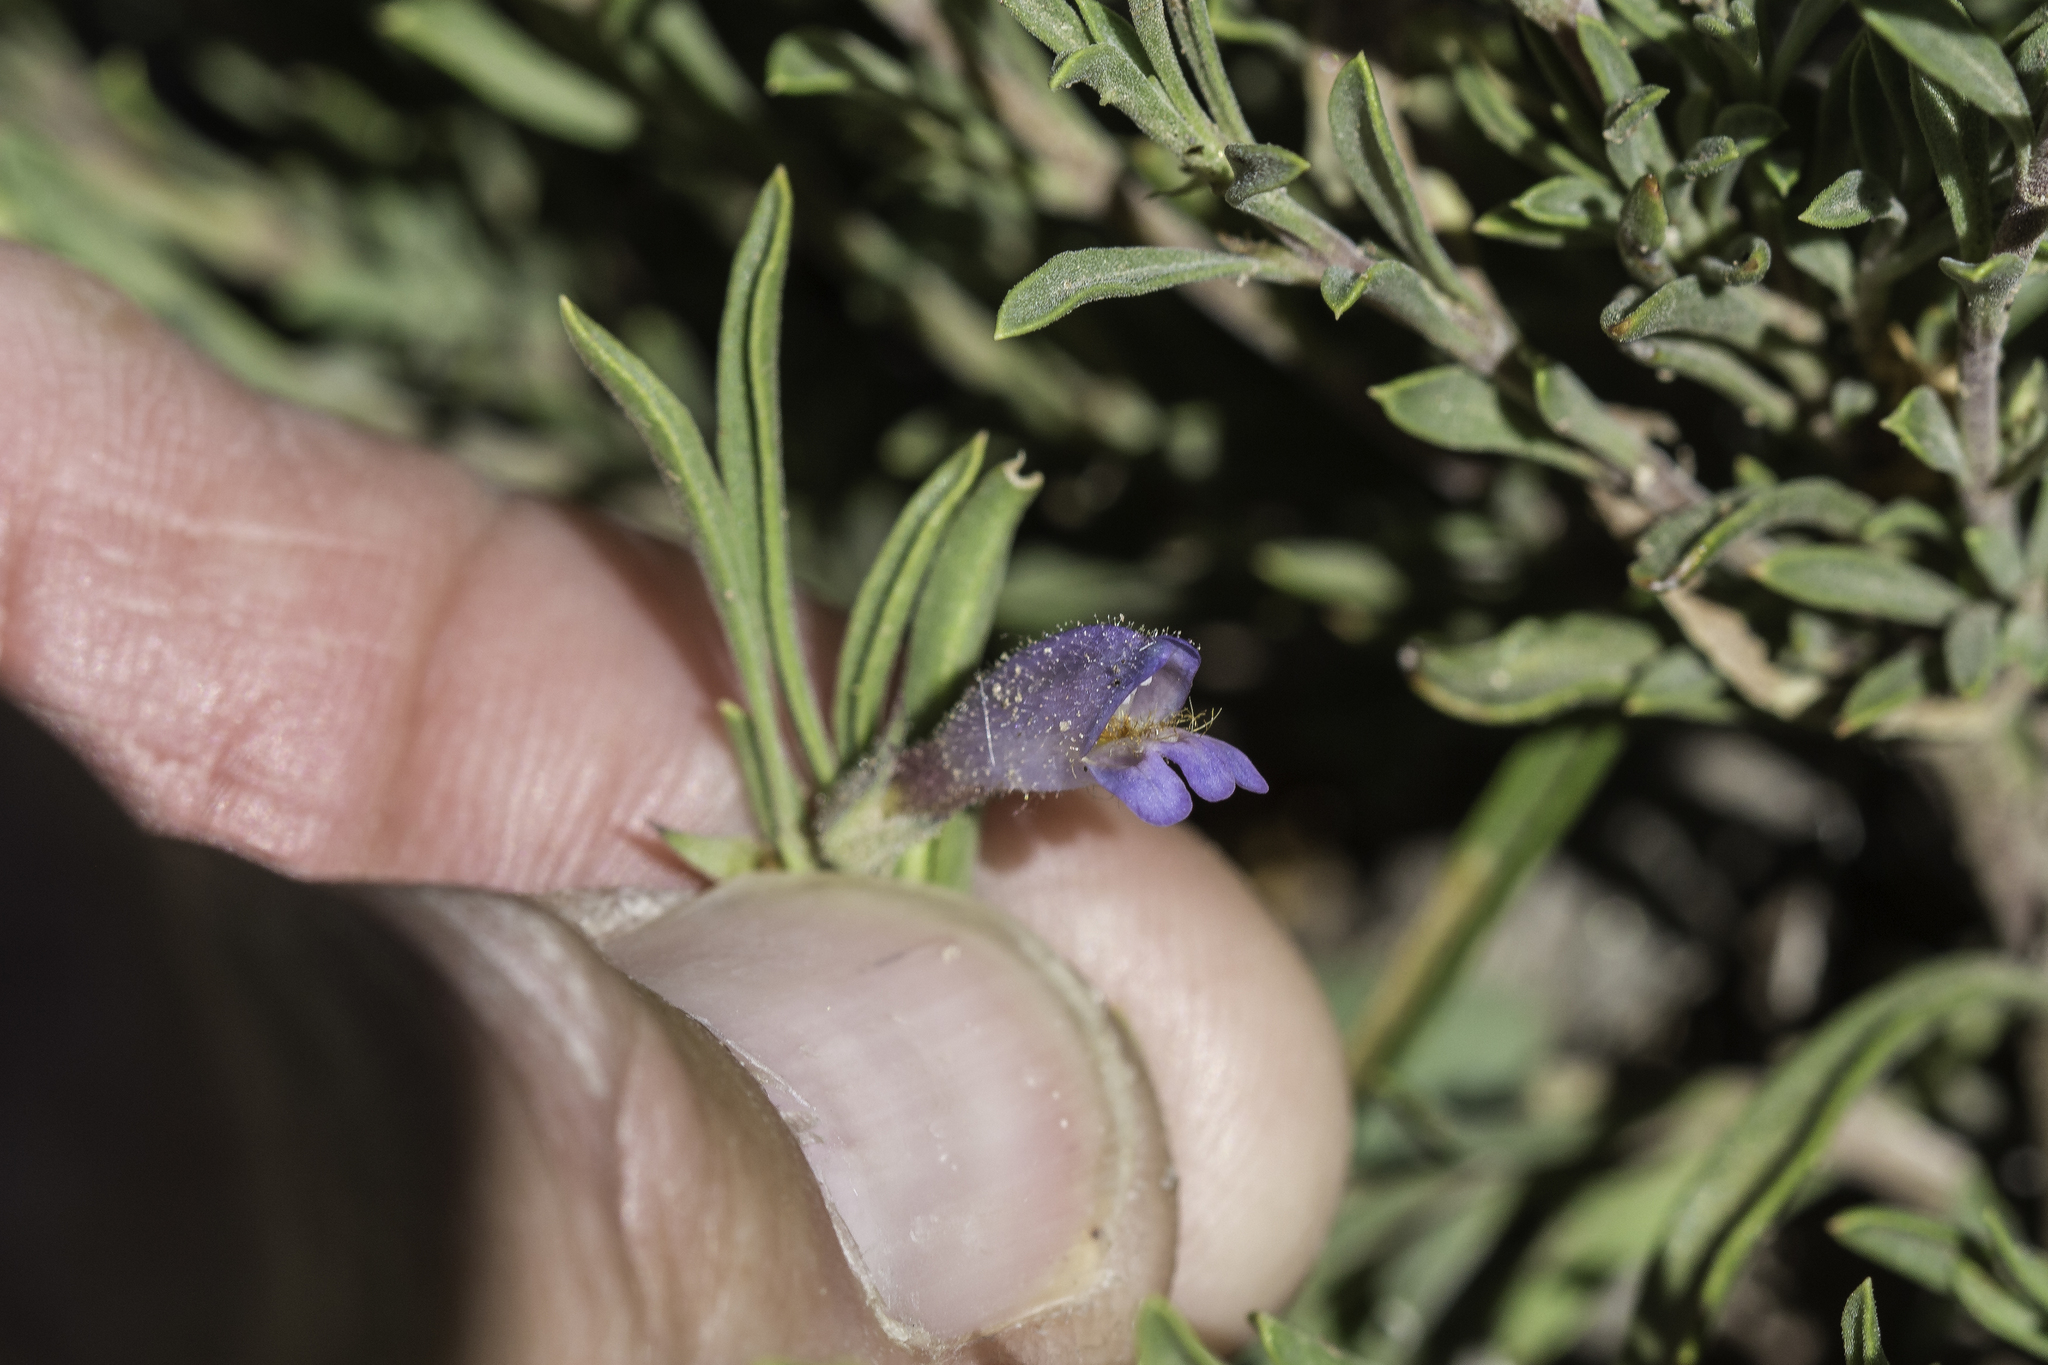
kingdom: Plantae
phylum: Tracheophyta
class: Magnoliopsida
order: Lamiales
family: Plantaginaceae
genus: Penstemon
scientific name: Penstemon crandallii
